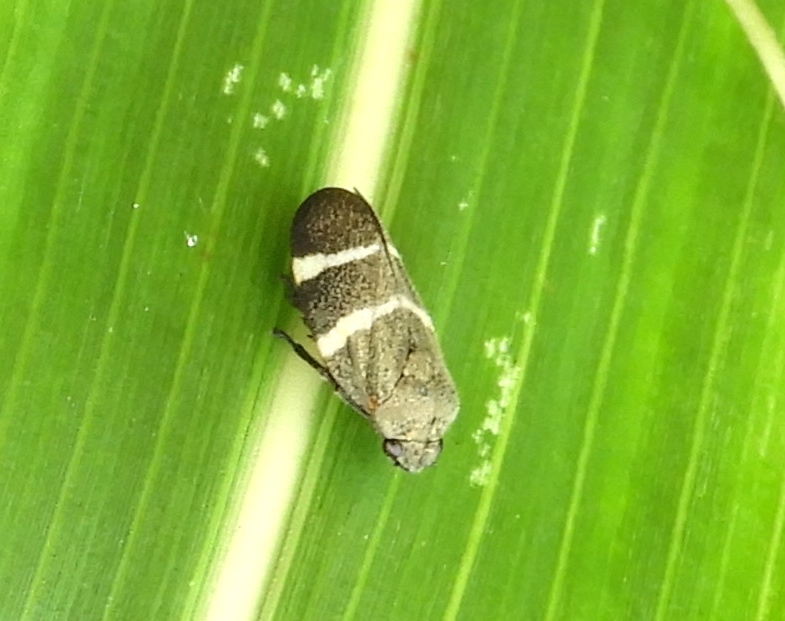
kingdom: Animalia
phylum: Arthropoda
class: Insecta
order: Hemiptera
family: Cercopidae
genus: Aeneolamia
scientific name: Aeneolamia
